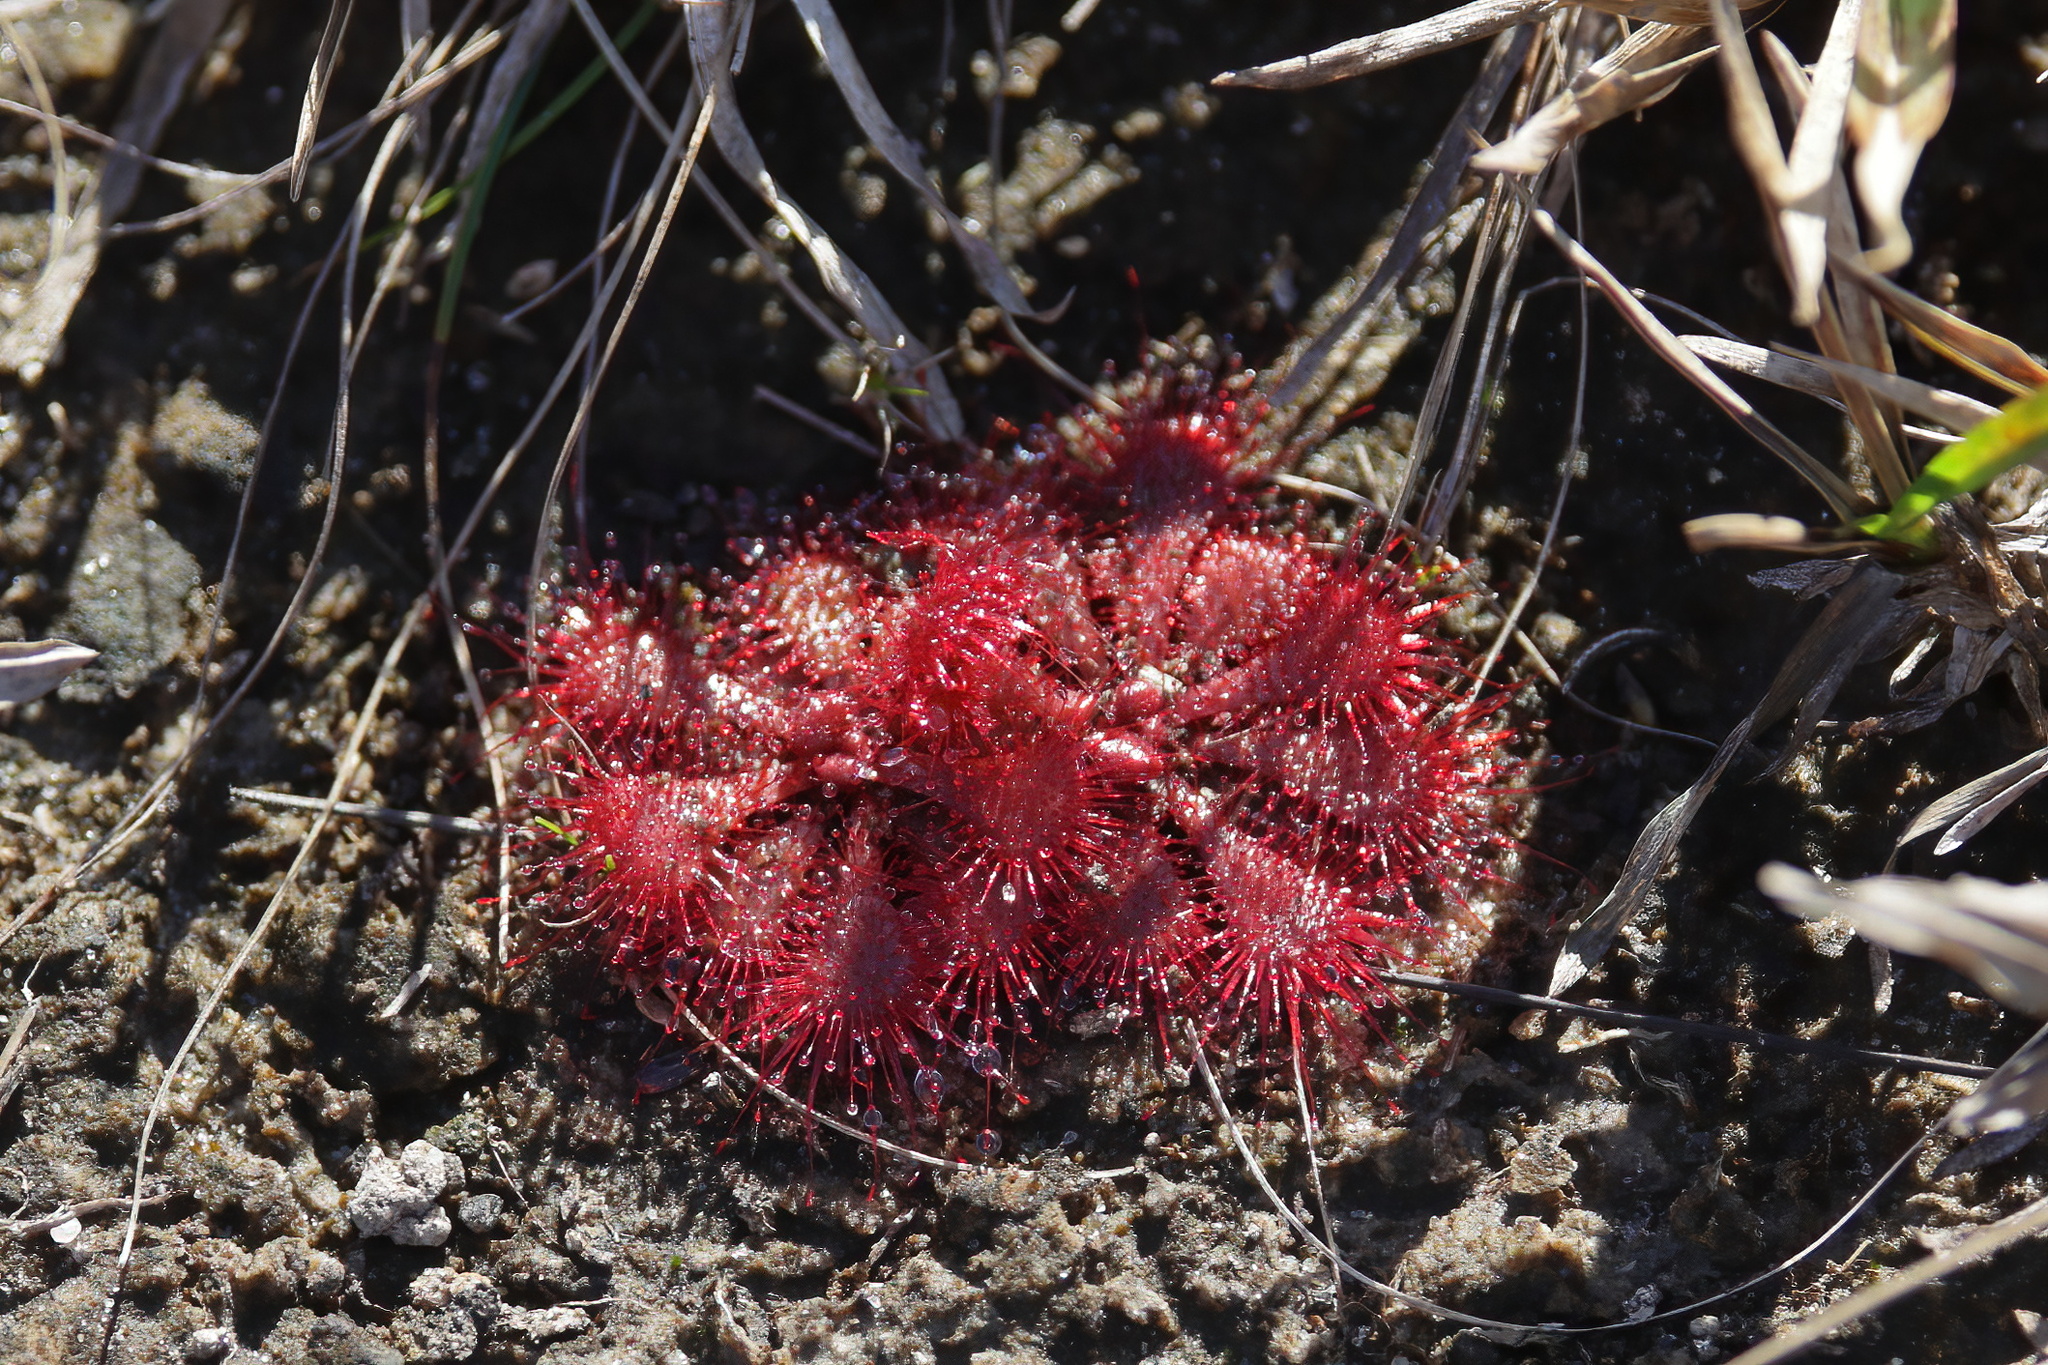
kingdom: Plantae
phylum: Tracheophyta
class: Magnoliopsida
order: Caryophyllales
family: Droseraceae
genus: Drosera
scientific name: Drosera brevifolia
